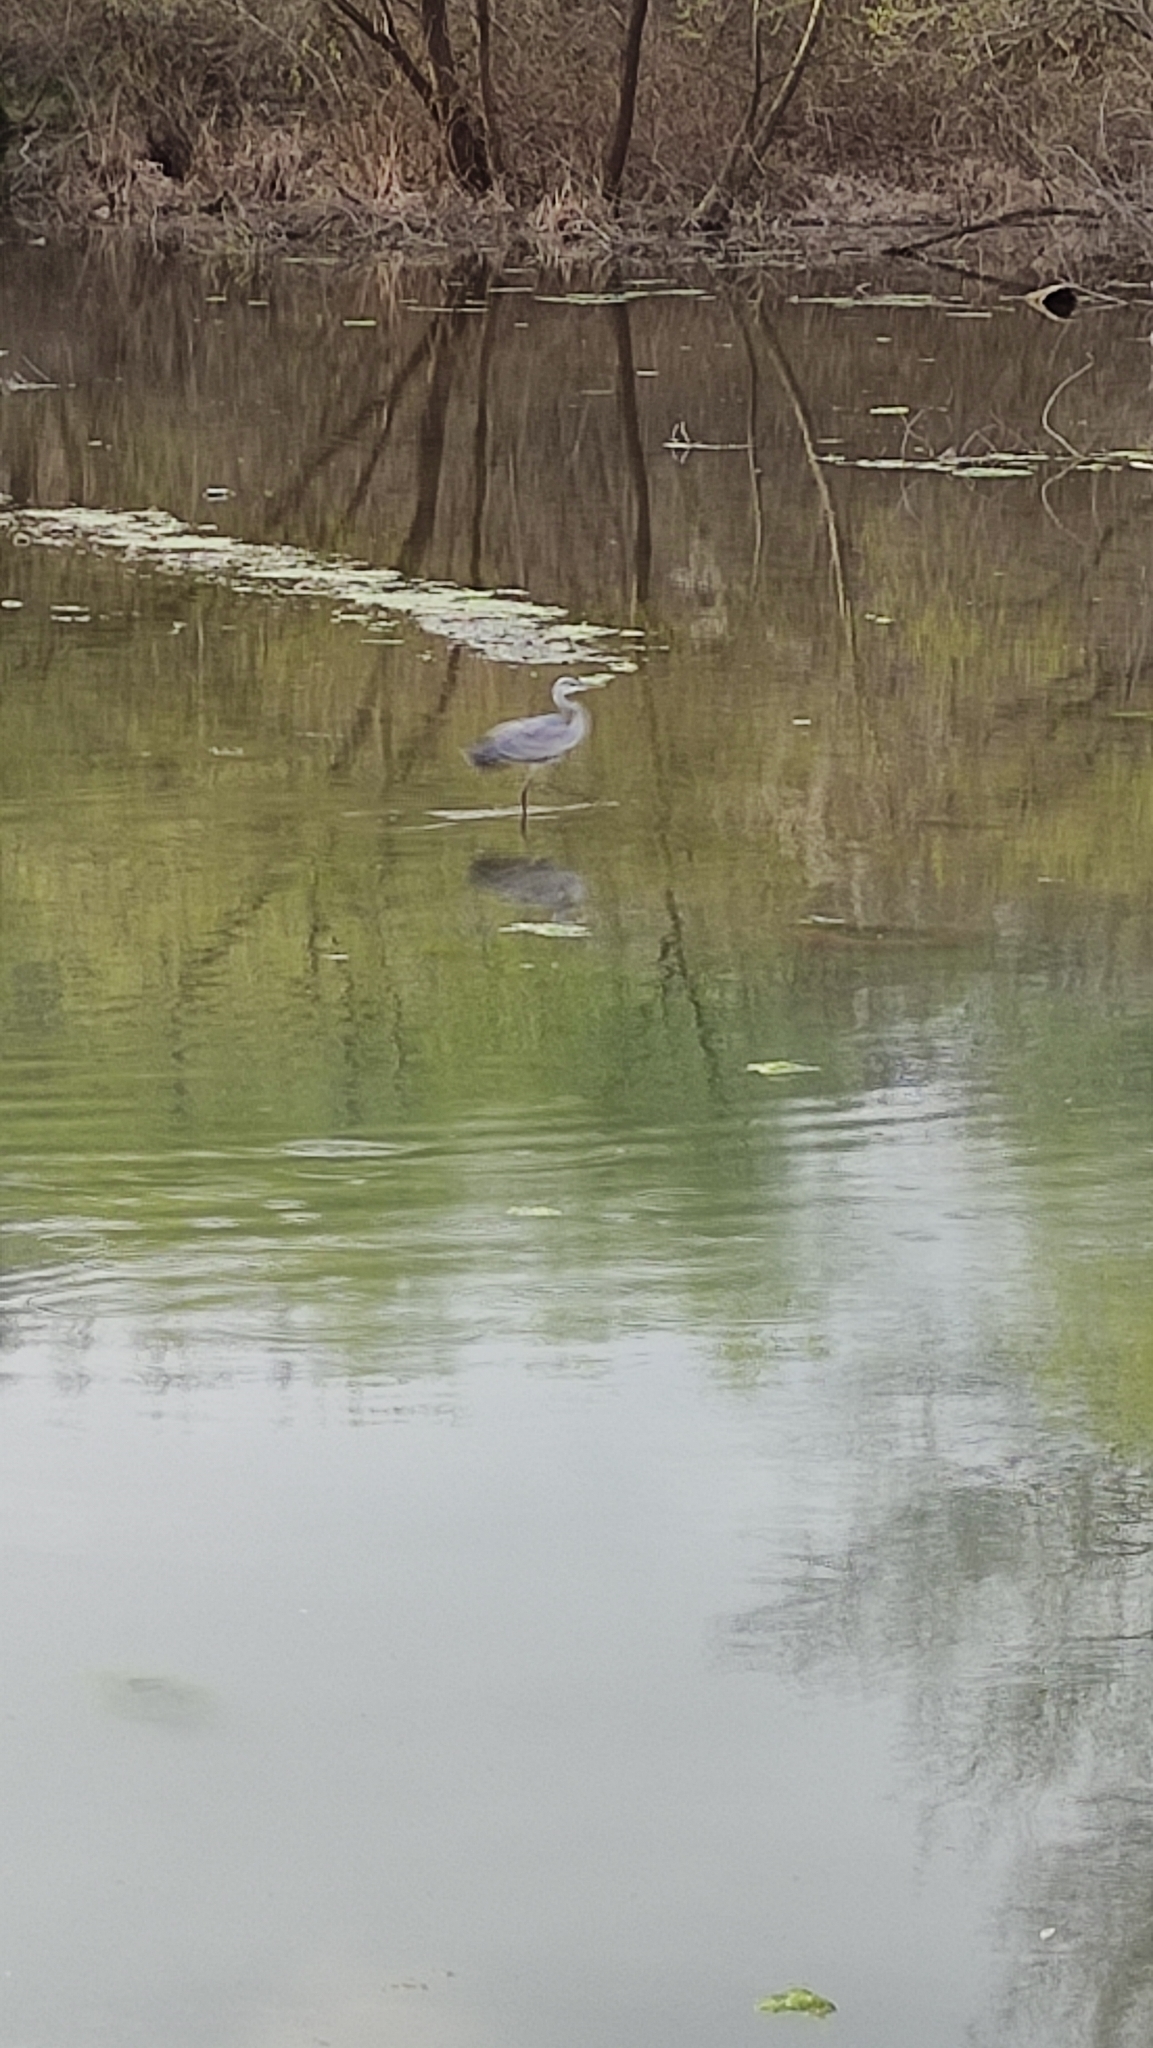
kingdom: Animalia
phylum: Chordata
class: Aves
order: Pelecaniformes
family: Ardeidae
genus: Ardea
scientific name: Ardea cinerea
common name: Grey heron
